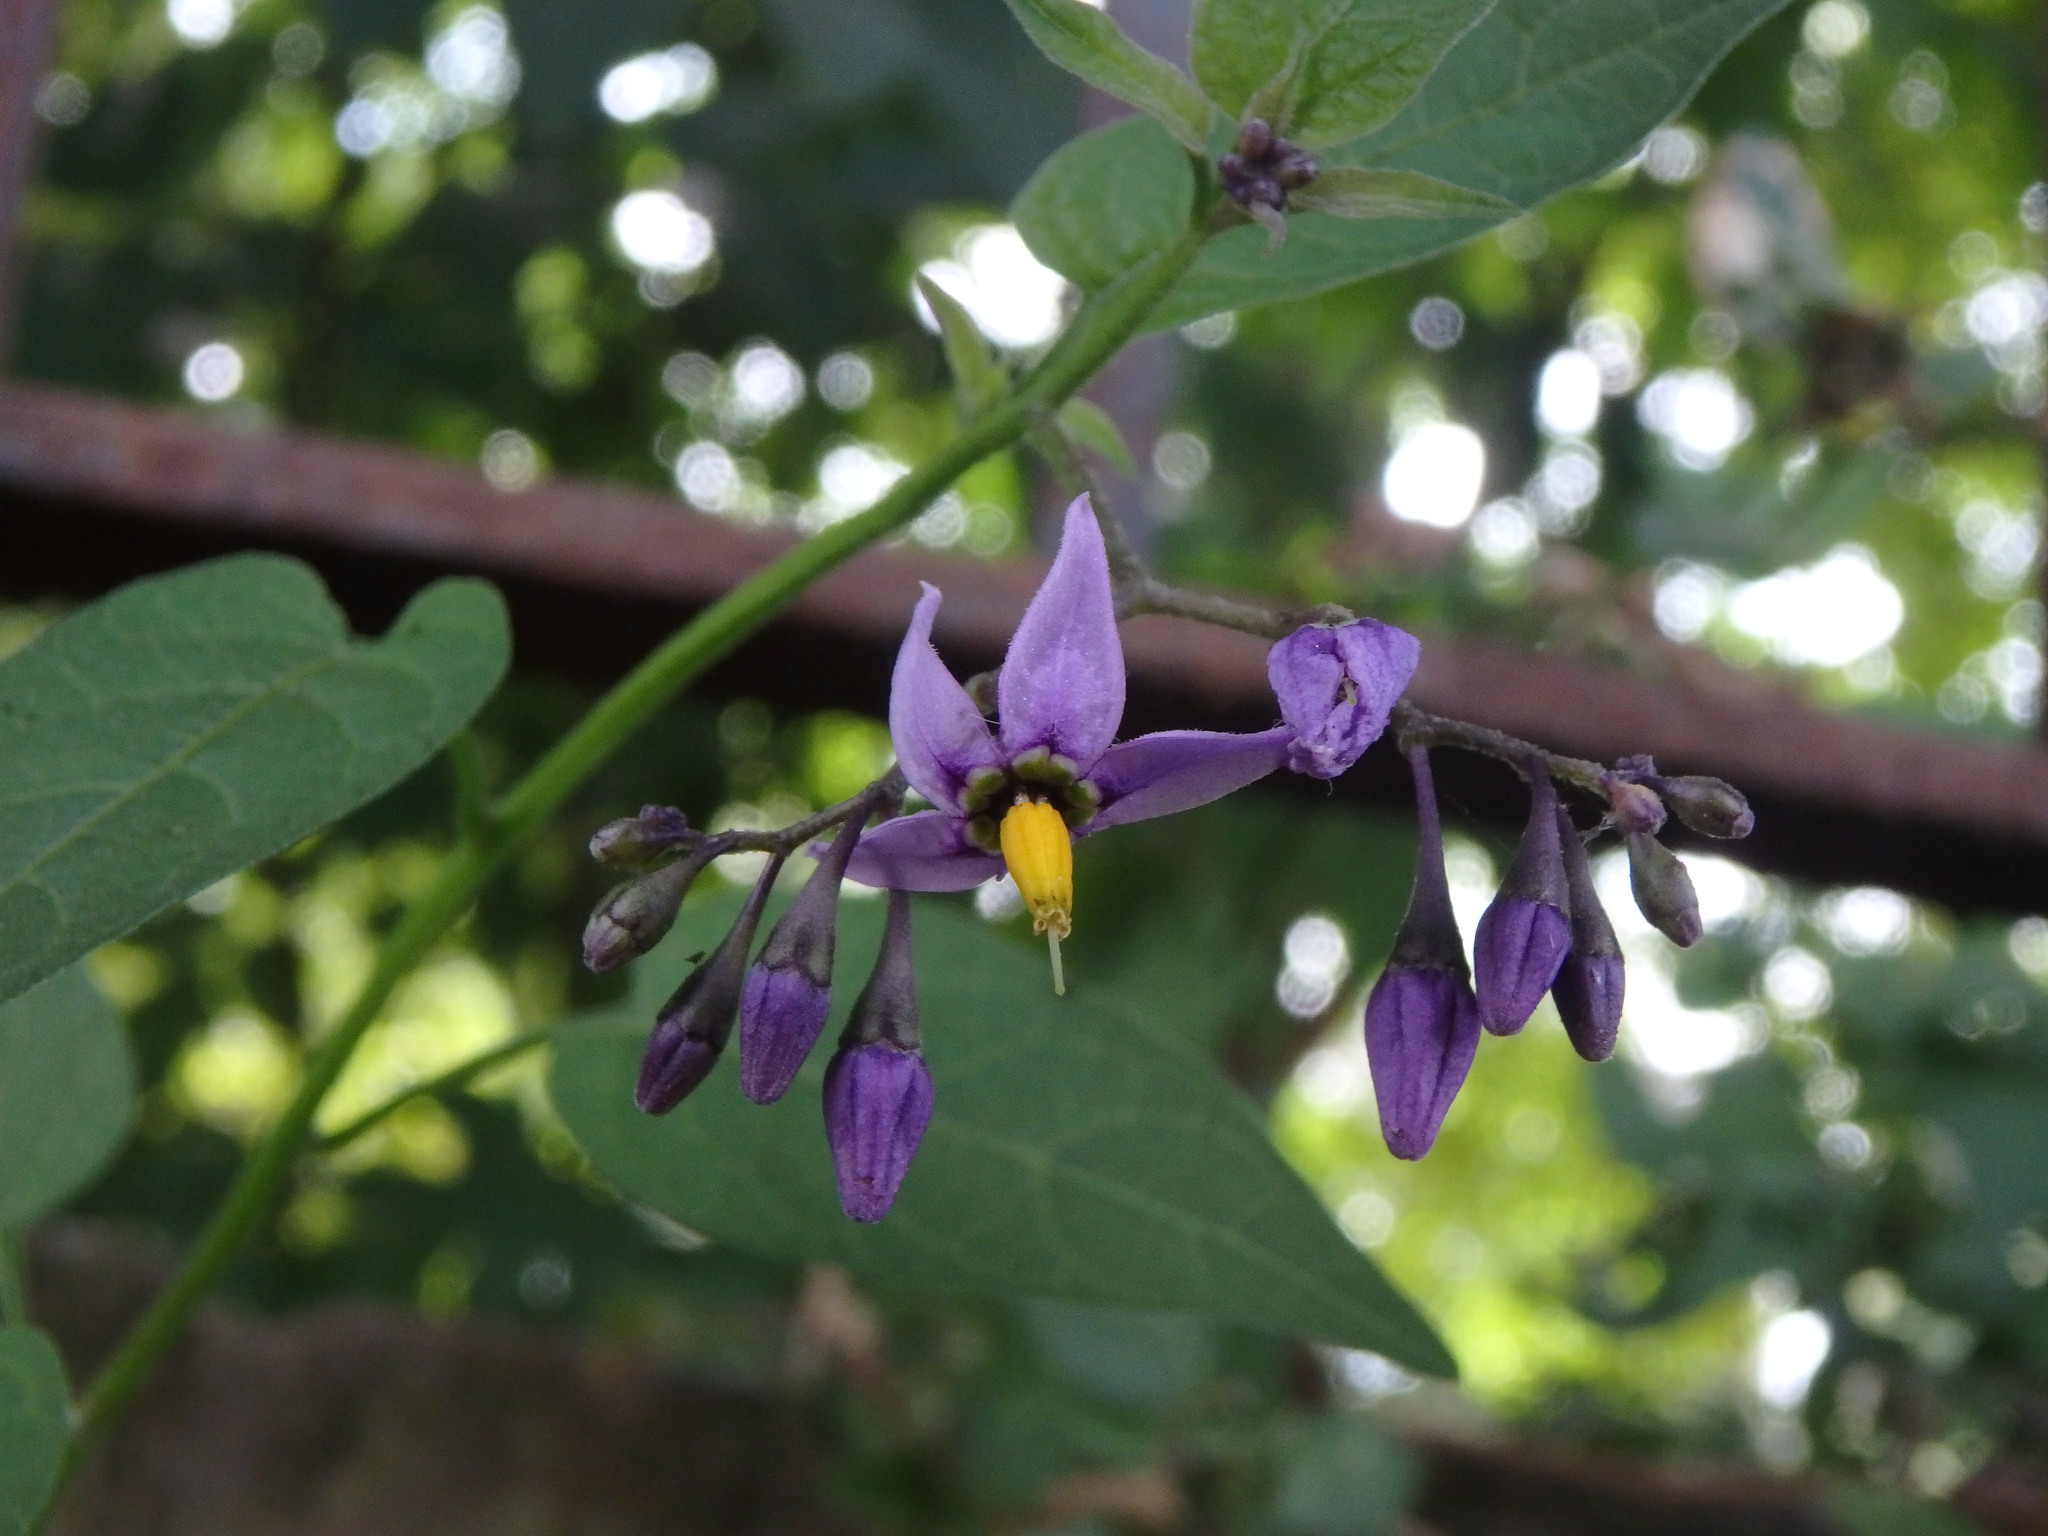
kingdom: Plantae
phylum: Tracheophyta
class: Magnoliopsida
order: Solanales
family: Solanaceae
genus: Solanum
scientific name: Solanum dulcamara
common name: Climbing nightshade
